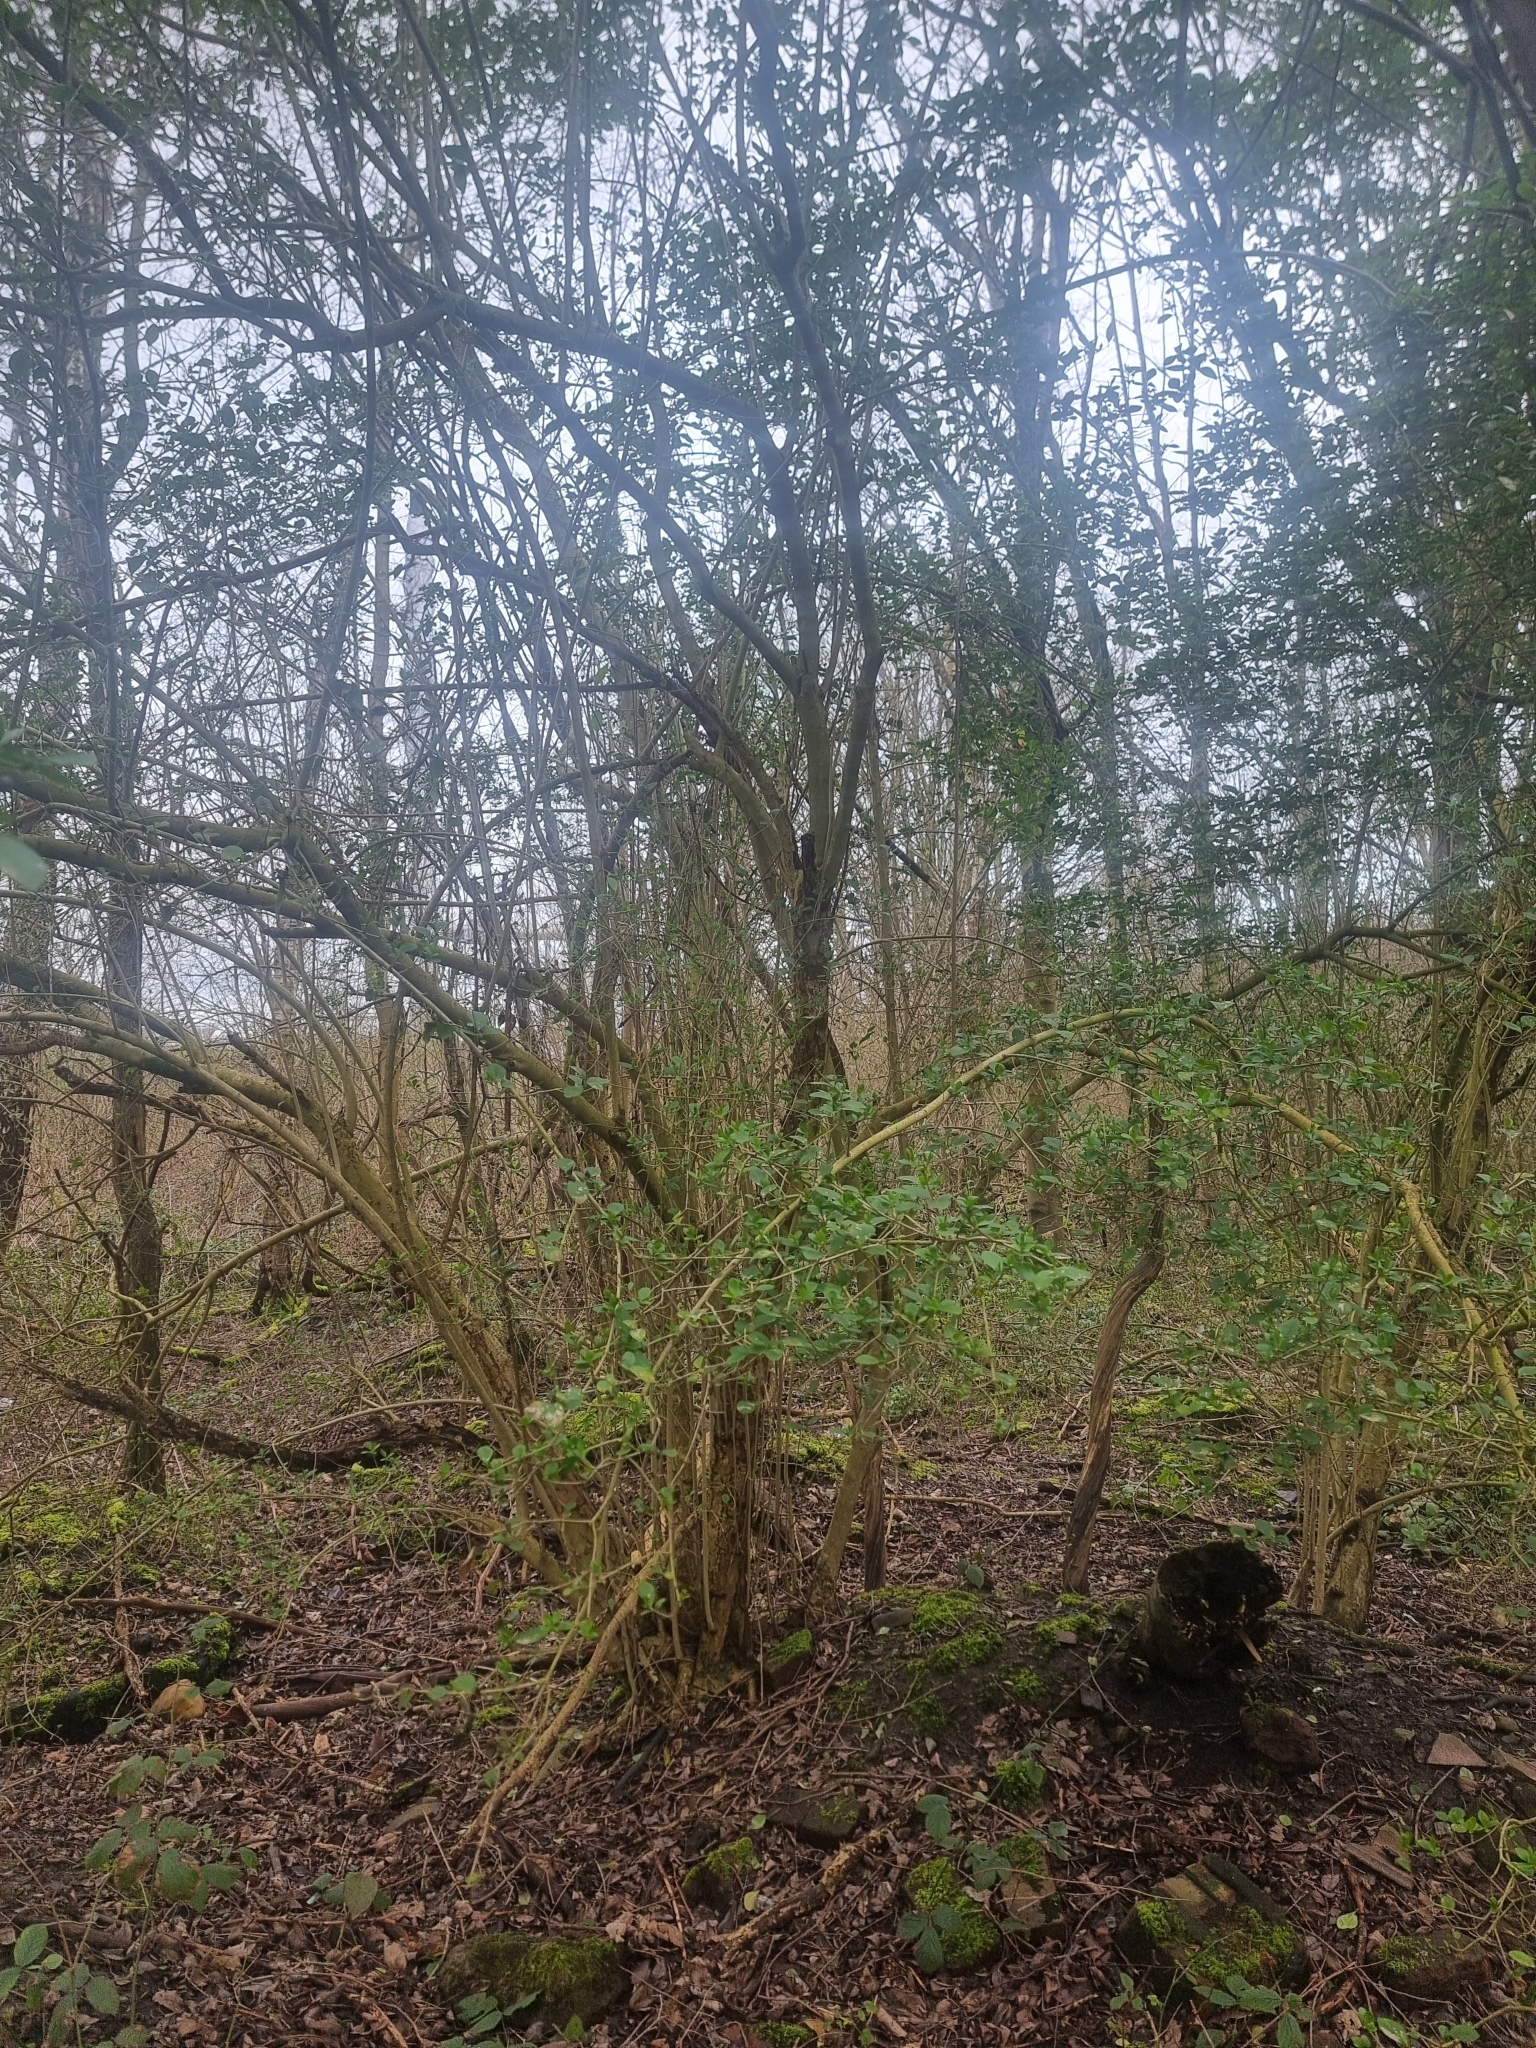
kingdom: Plantae
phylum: Tracheophyta
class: Magnoliopsida
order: Lamiales
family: Oleaceae
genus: Ligustrum
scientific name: Ligustrum ovalifolium
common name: California privet
